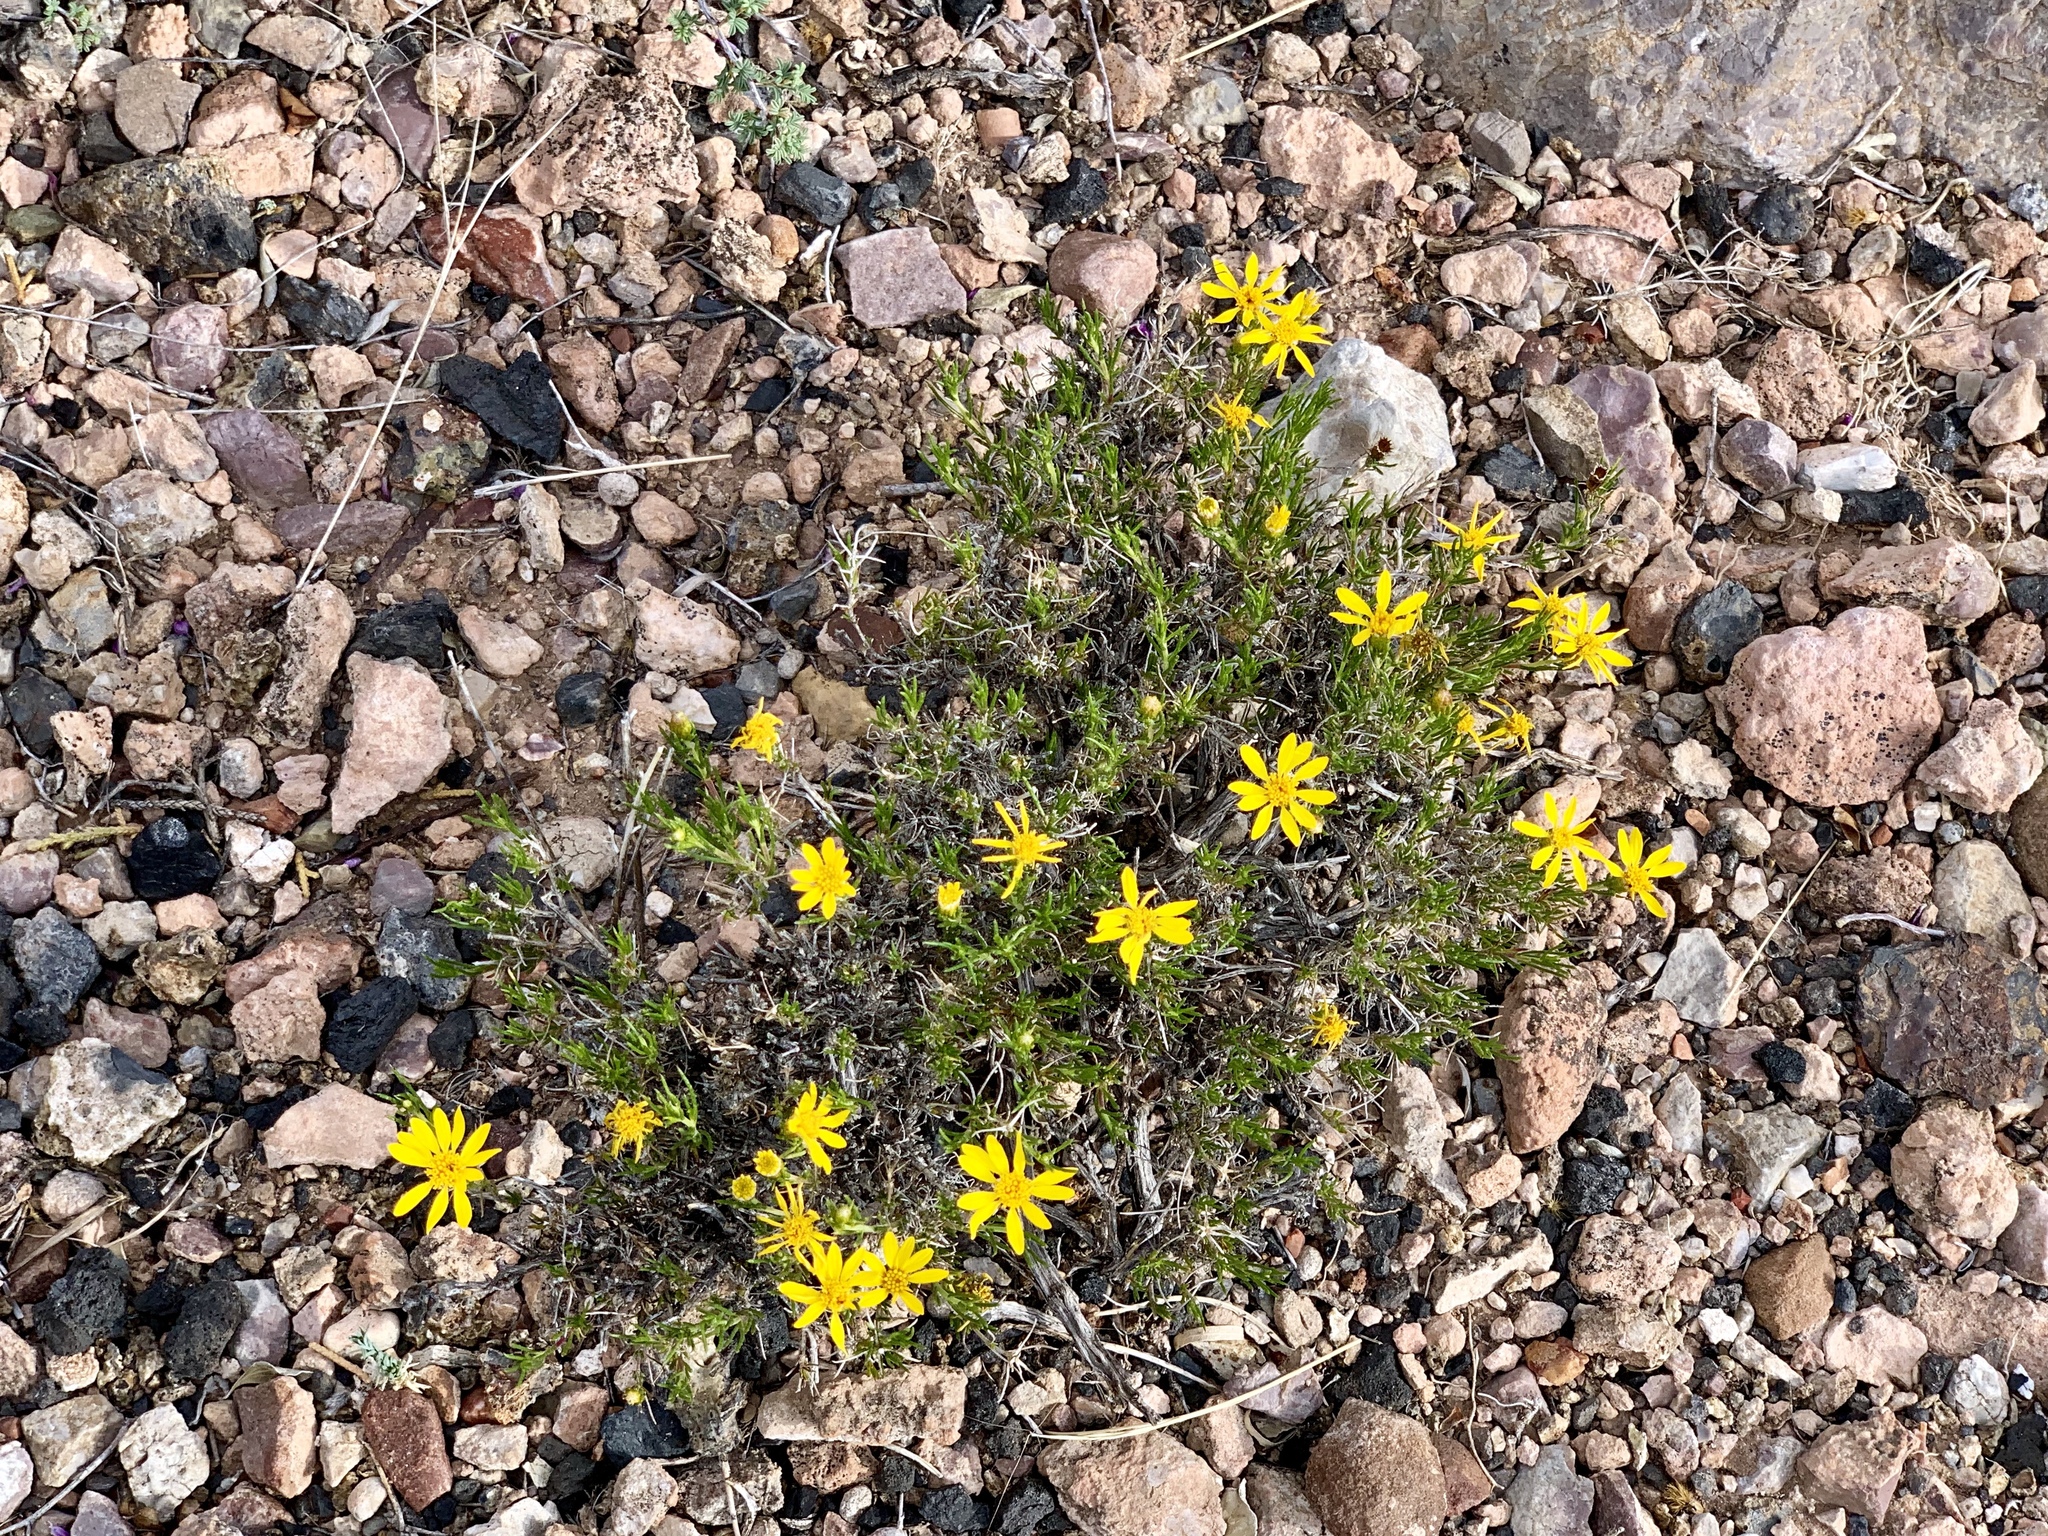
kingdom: Plantae
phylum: Tracheophyta
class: Magnoliopsida
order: Asterales
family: Asteraceae
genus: Thymophylla
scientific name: Thymophylla acerosa
